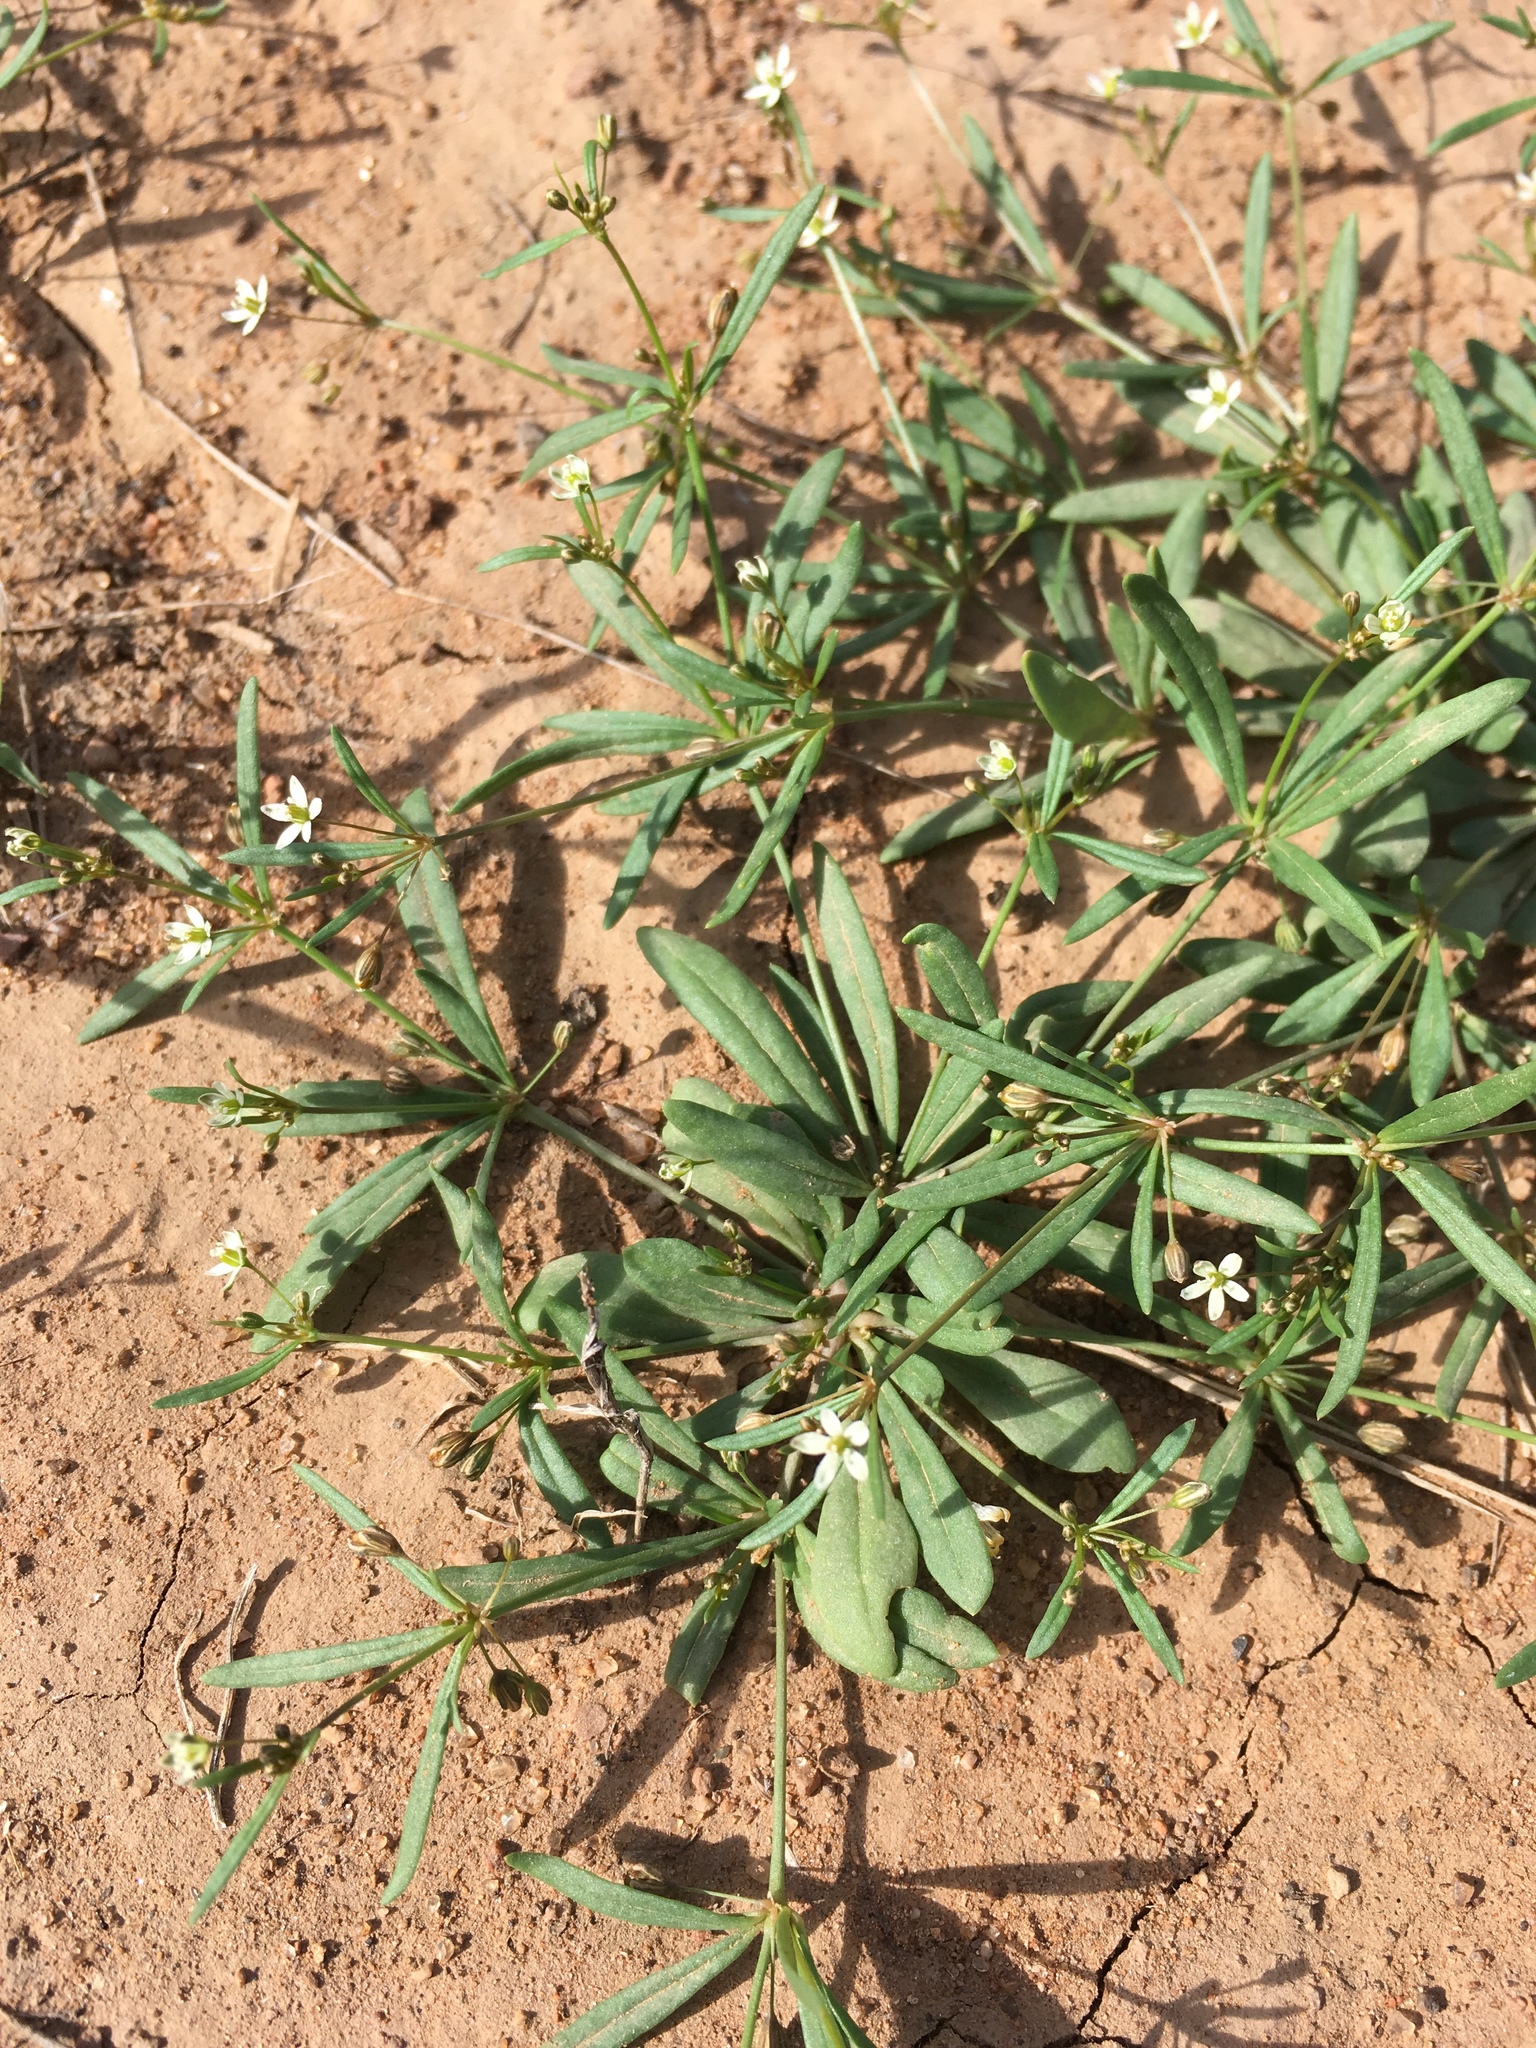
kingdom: Plantae
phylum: Tracheophyta
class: Magnoliopsida
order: Caryophyllales
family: Molluginaceae
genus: Mollugo
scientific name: Mollugo verticillata
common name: Green carpetweed
